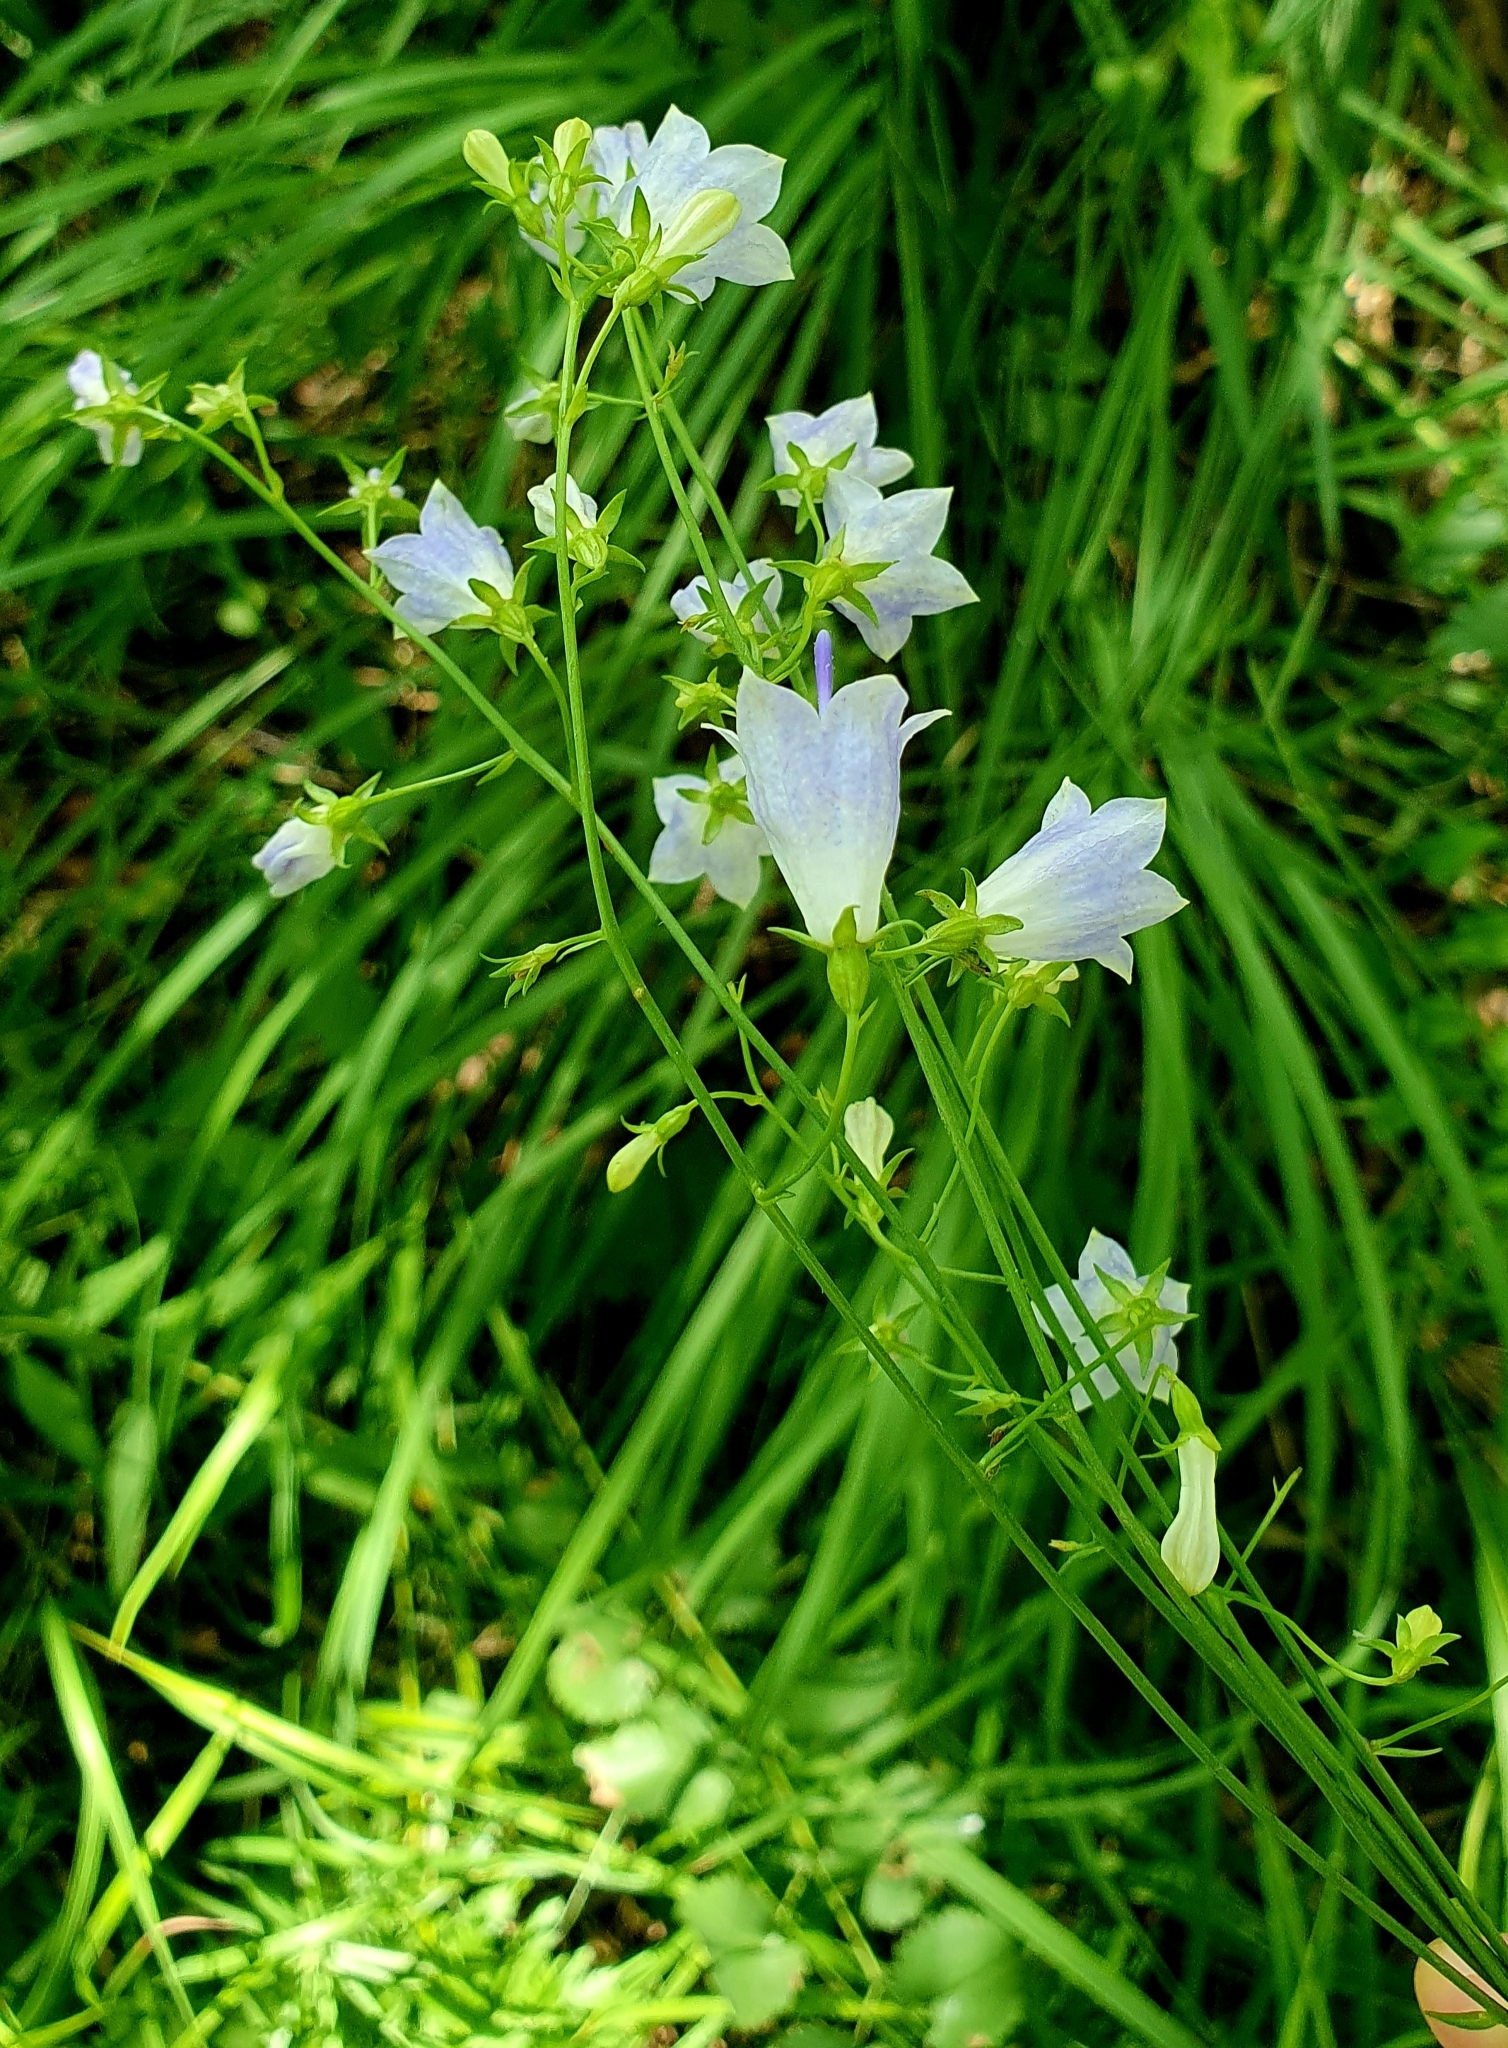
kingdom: Plantae
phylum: Tracheophyta
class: Magnoliopsida
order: Asterales
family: Campanulaceae
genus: Adenophora
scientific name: Adenophora liliifolia
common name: Lilyleaf ladybells
